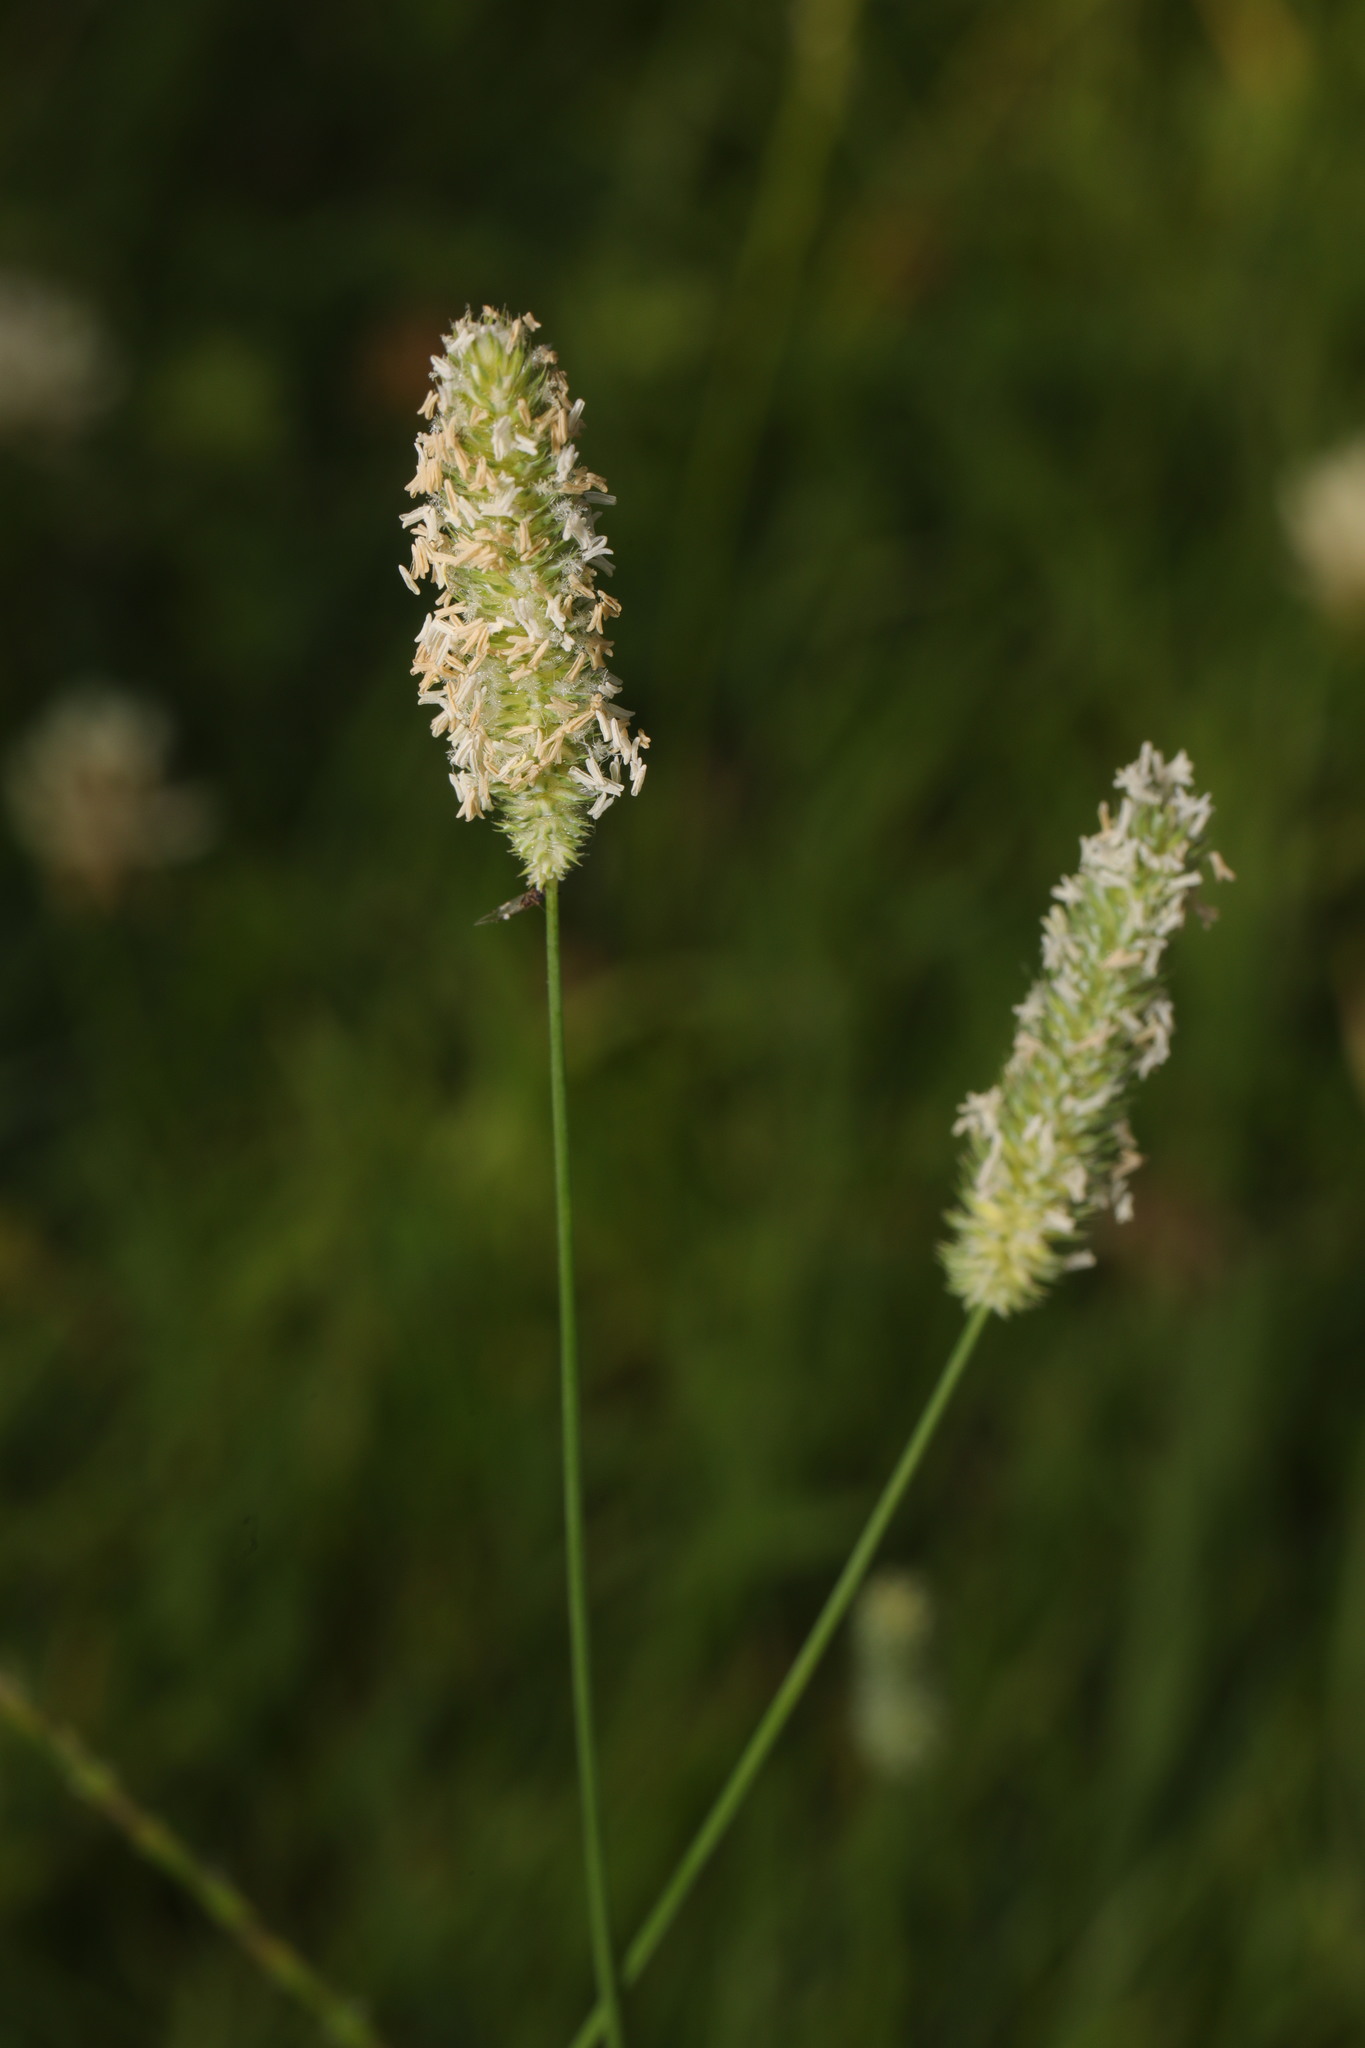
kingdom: Plantae
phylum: Tracheophyta
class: Liliopsida
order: Poales
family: Poaceae
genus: Phleum
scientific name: Phleum pratense
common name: Timothy grass
